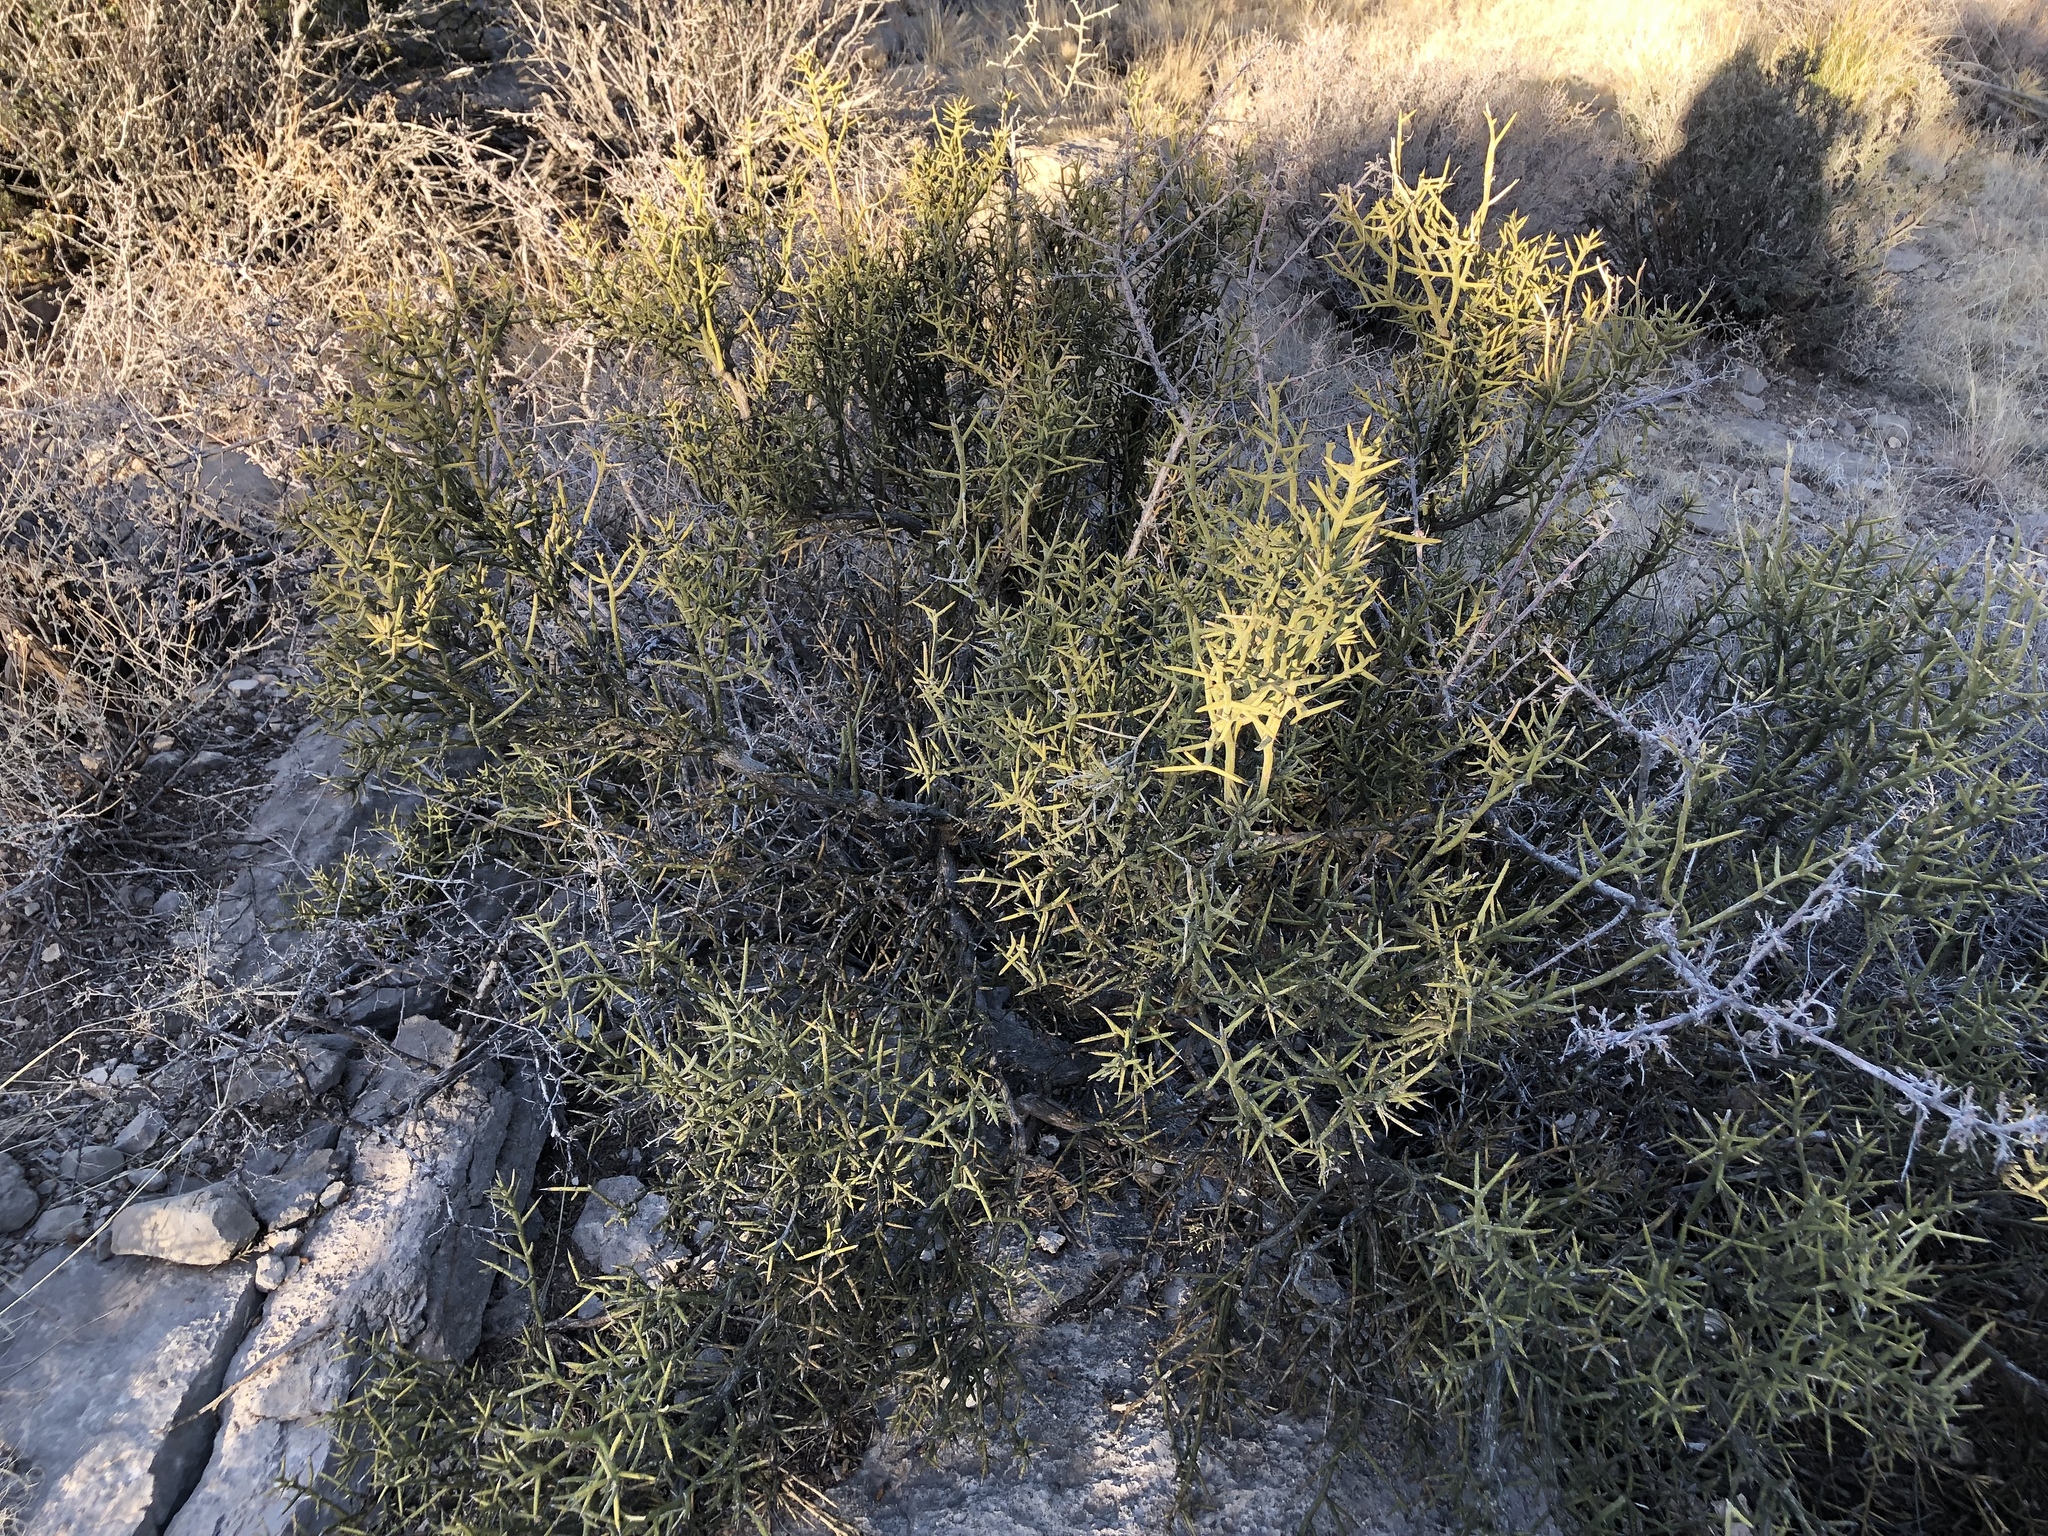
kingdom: Plantae
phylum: Tracheophyta
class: Magnoliopsida
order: Brassicales
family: Koeberliniaceae
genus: Koeberlinia
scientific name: Koeberlinia spinosa
